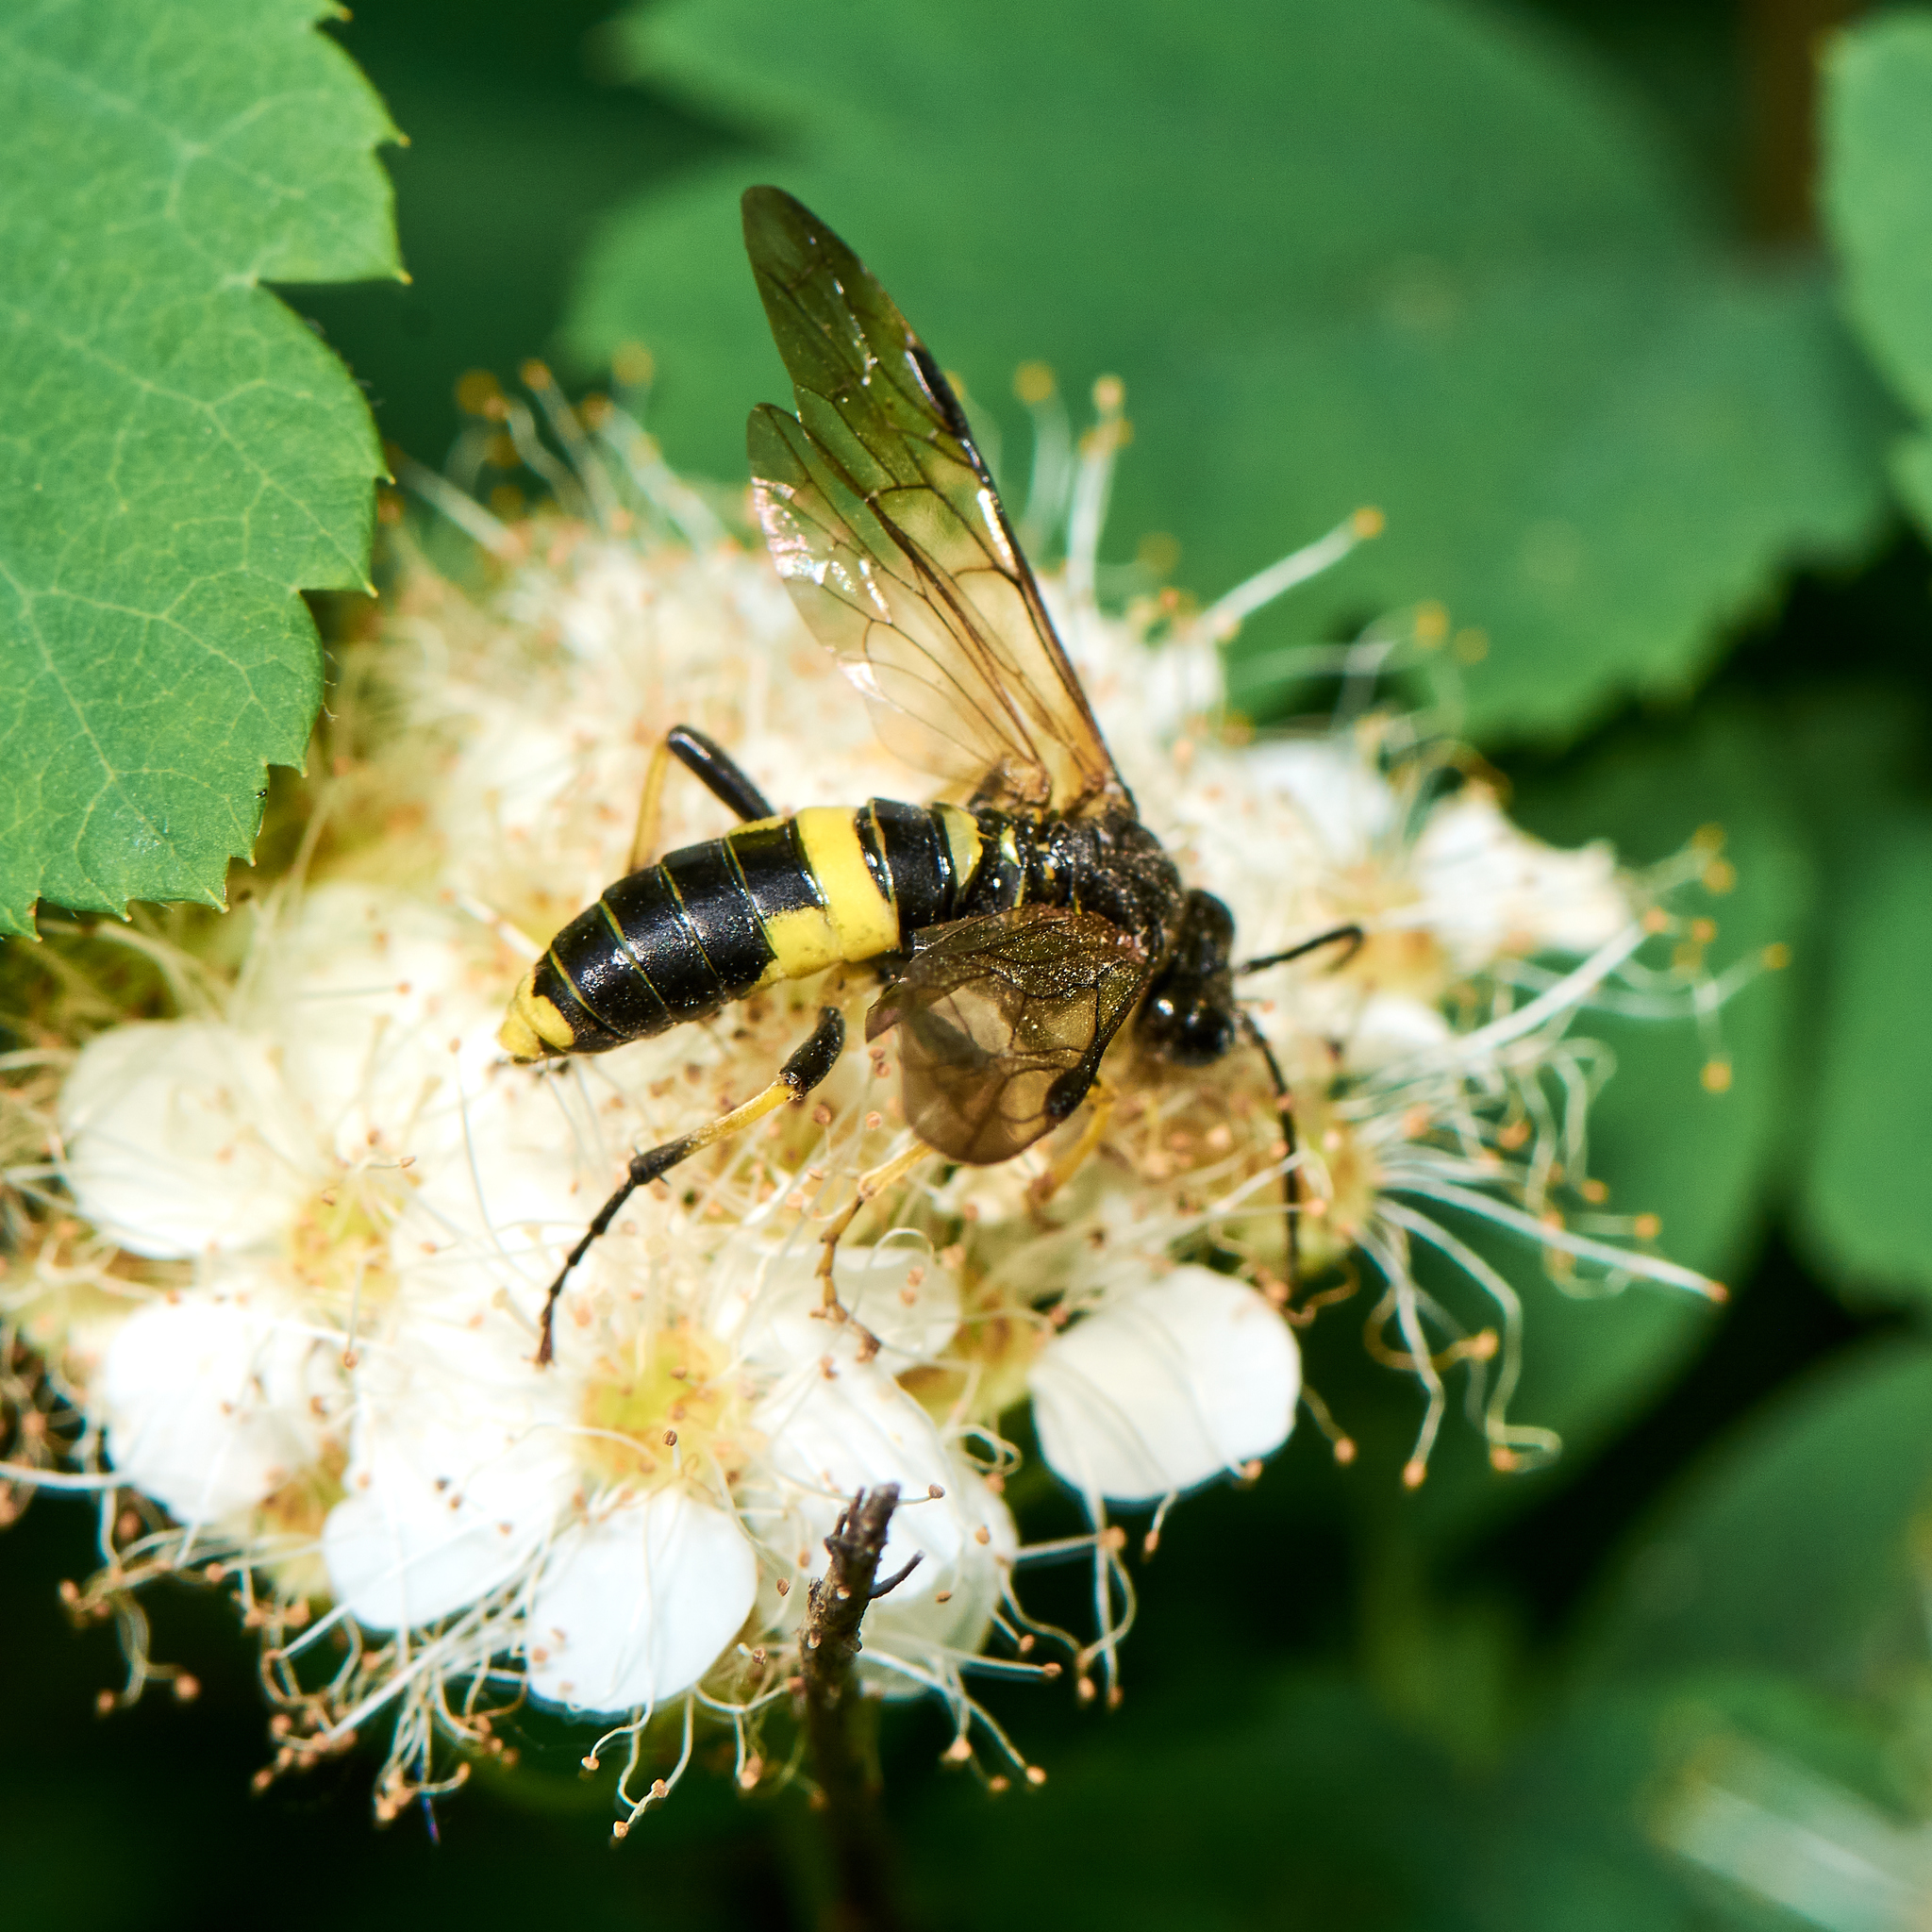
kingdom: Animalia
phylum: Arthropoda
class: Insecta
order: Hymenoptera
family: Tenthredinidae
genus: Tenthredo
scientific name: Tenthredo temula
